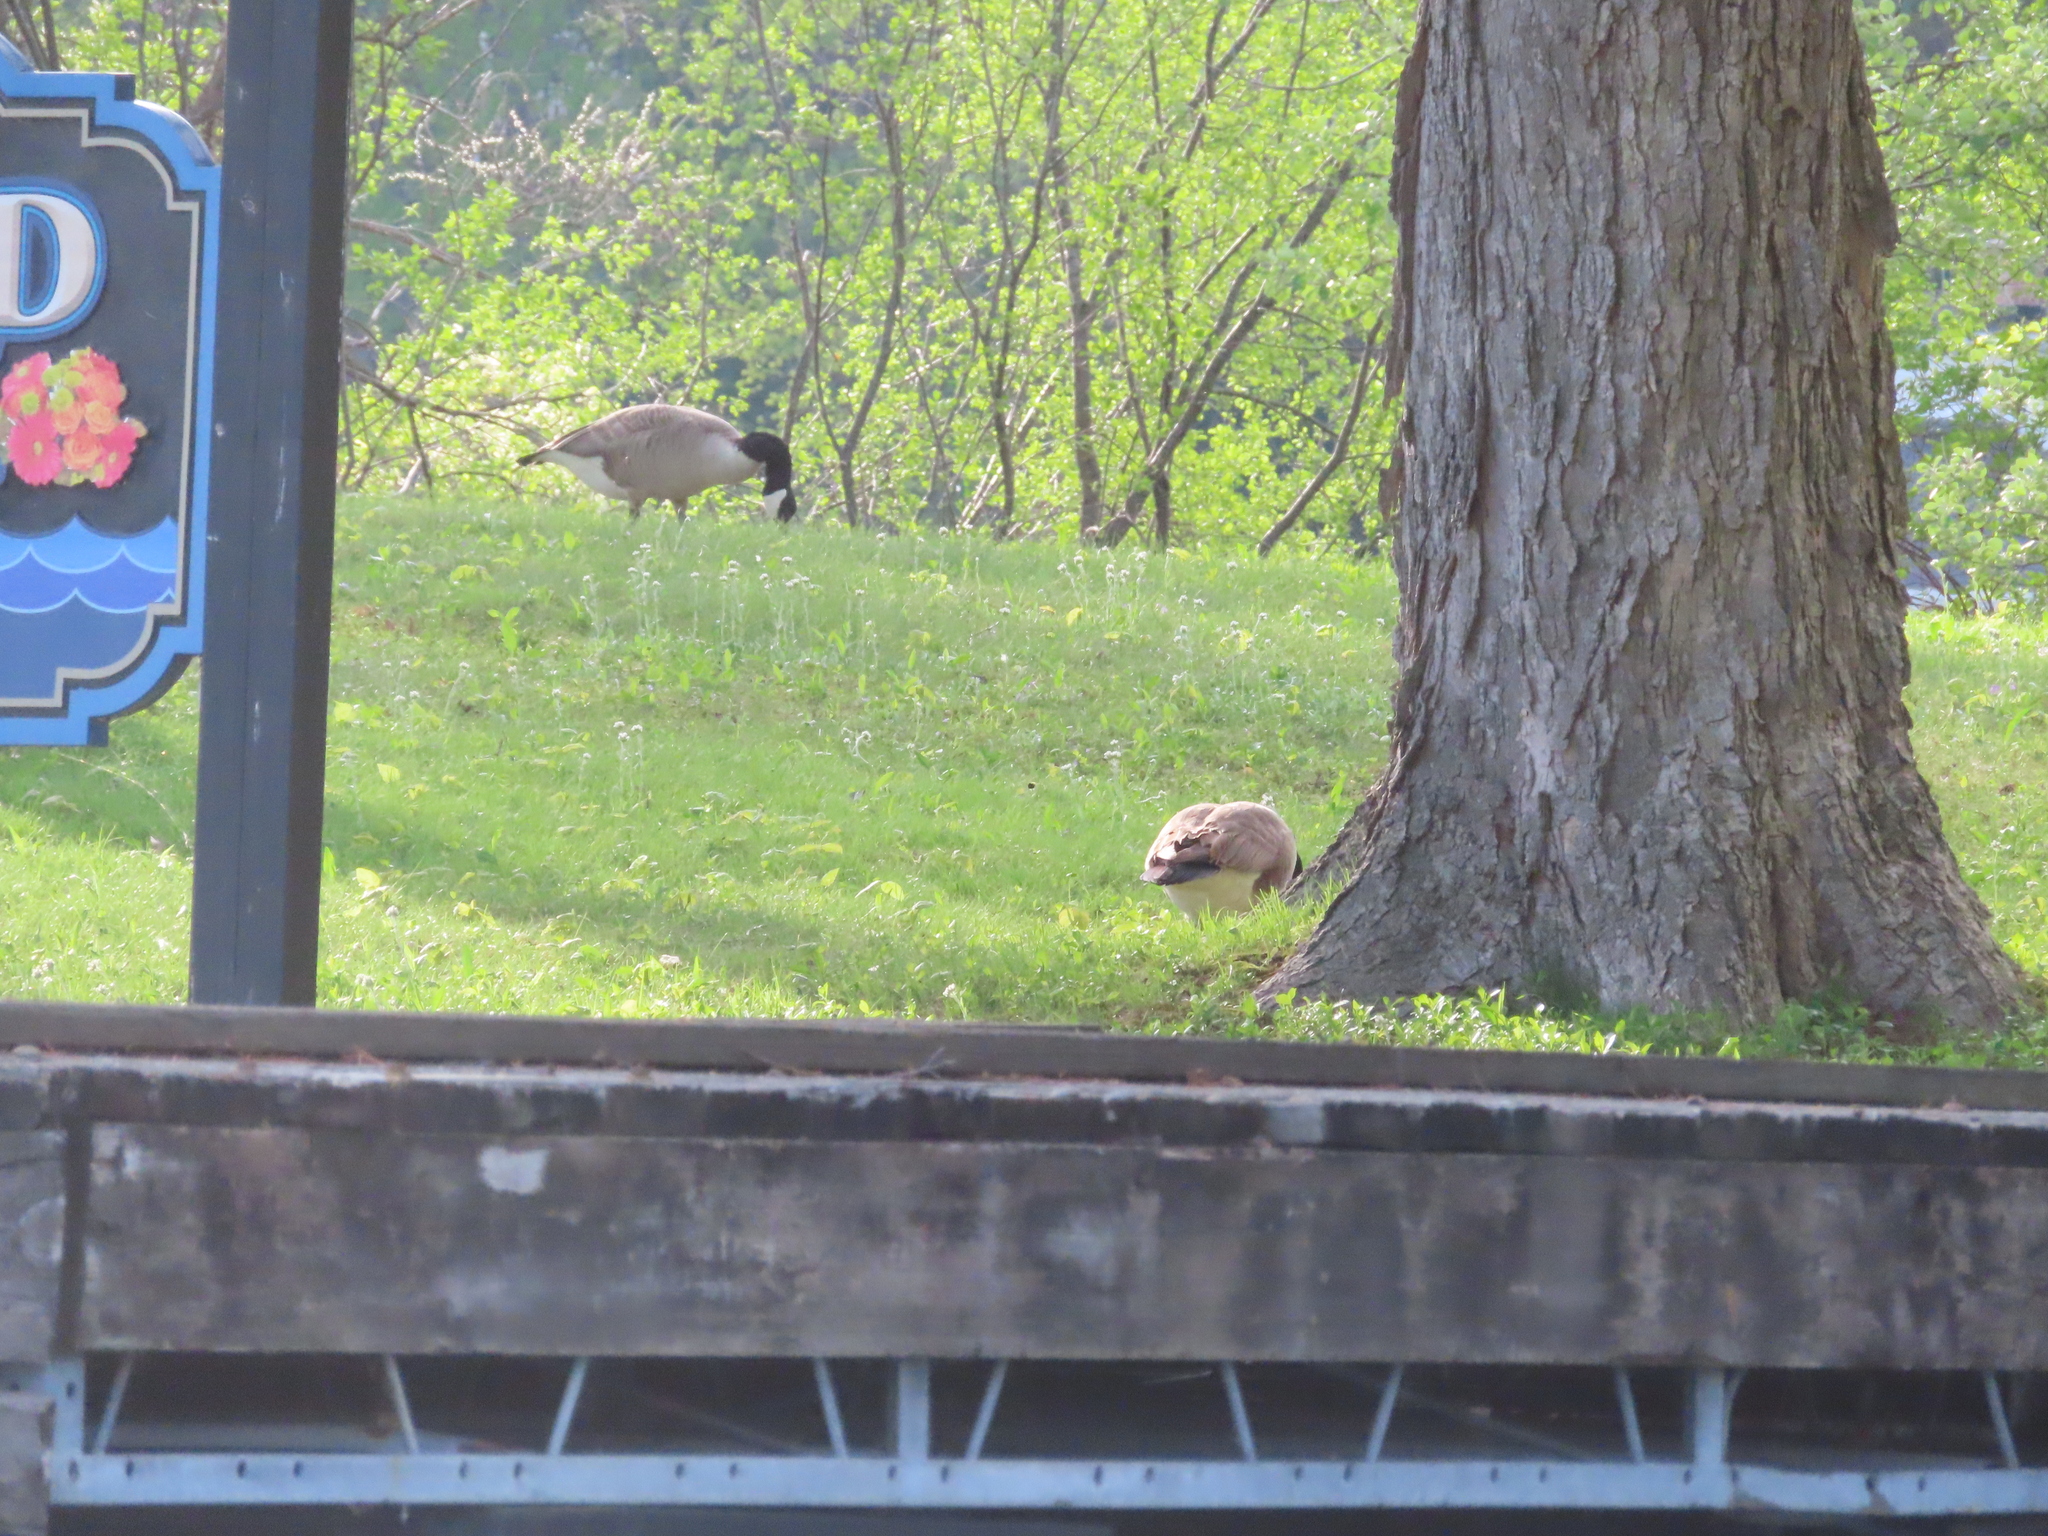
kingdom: Animalia
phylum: Chordata
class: Aves
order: Anseriformes
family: Anatidae
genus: Branta
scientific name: Branta canadensis
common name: Canada goose
